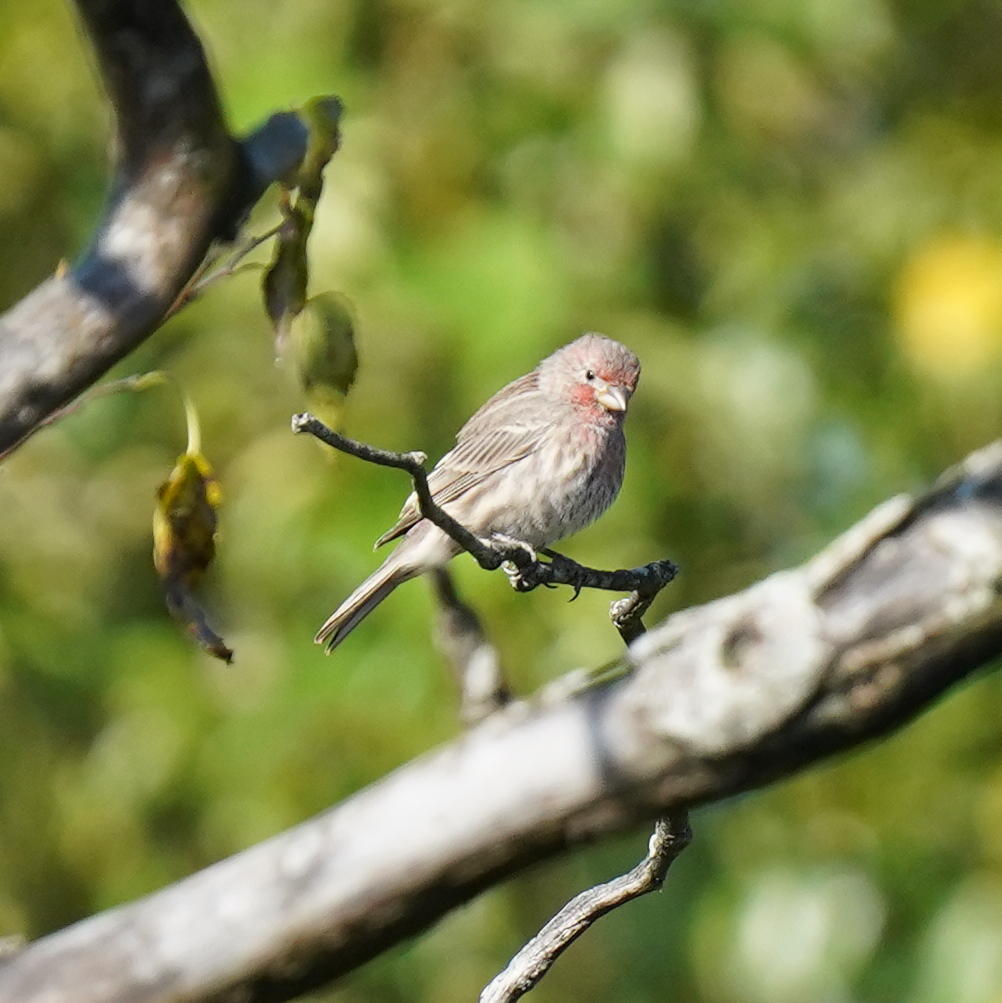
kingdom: Animalia
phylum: Chordata
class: Aves
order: Passeriformes
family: Fringillidae
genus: Haemorhous
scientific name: Haemorhous mexicanus
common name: House finch
